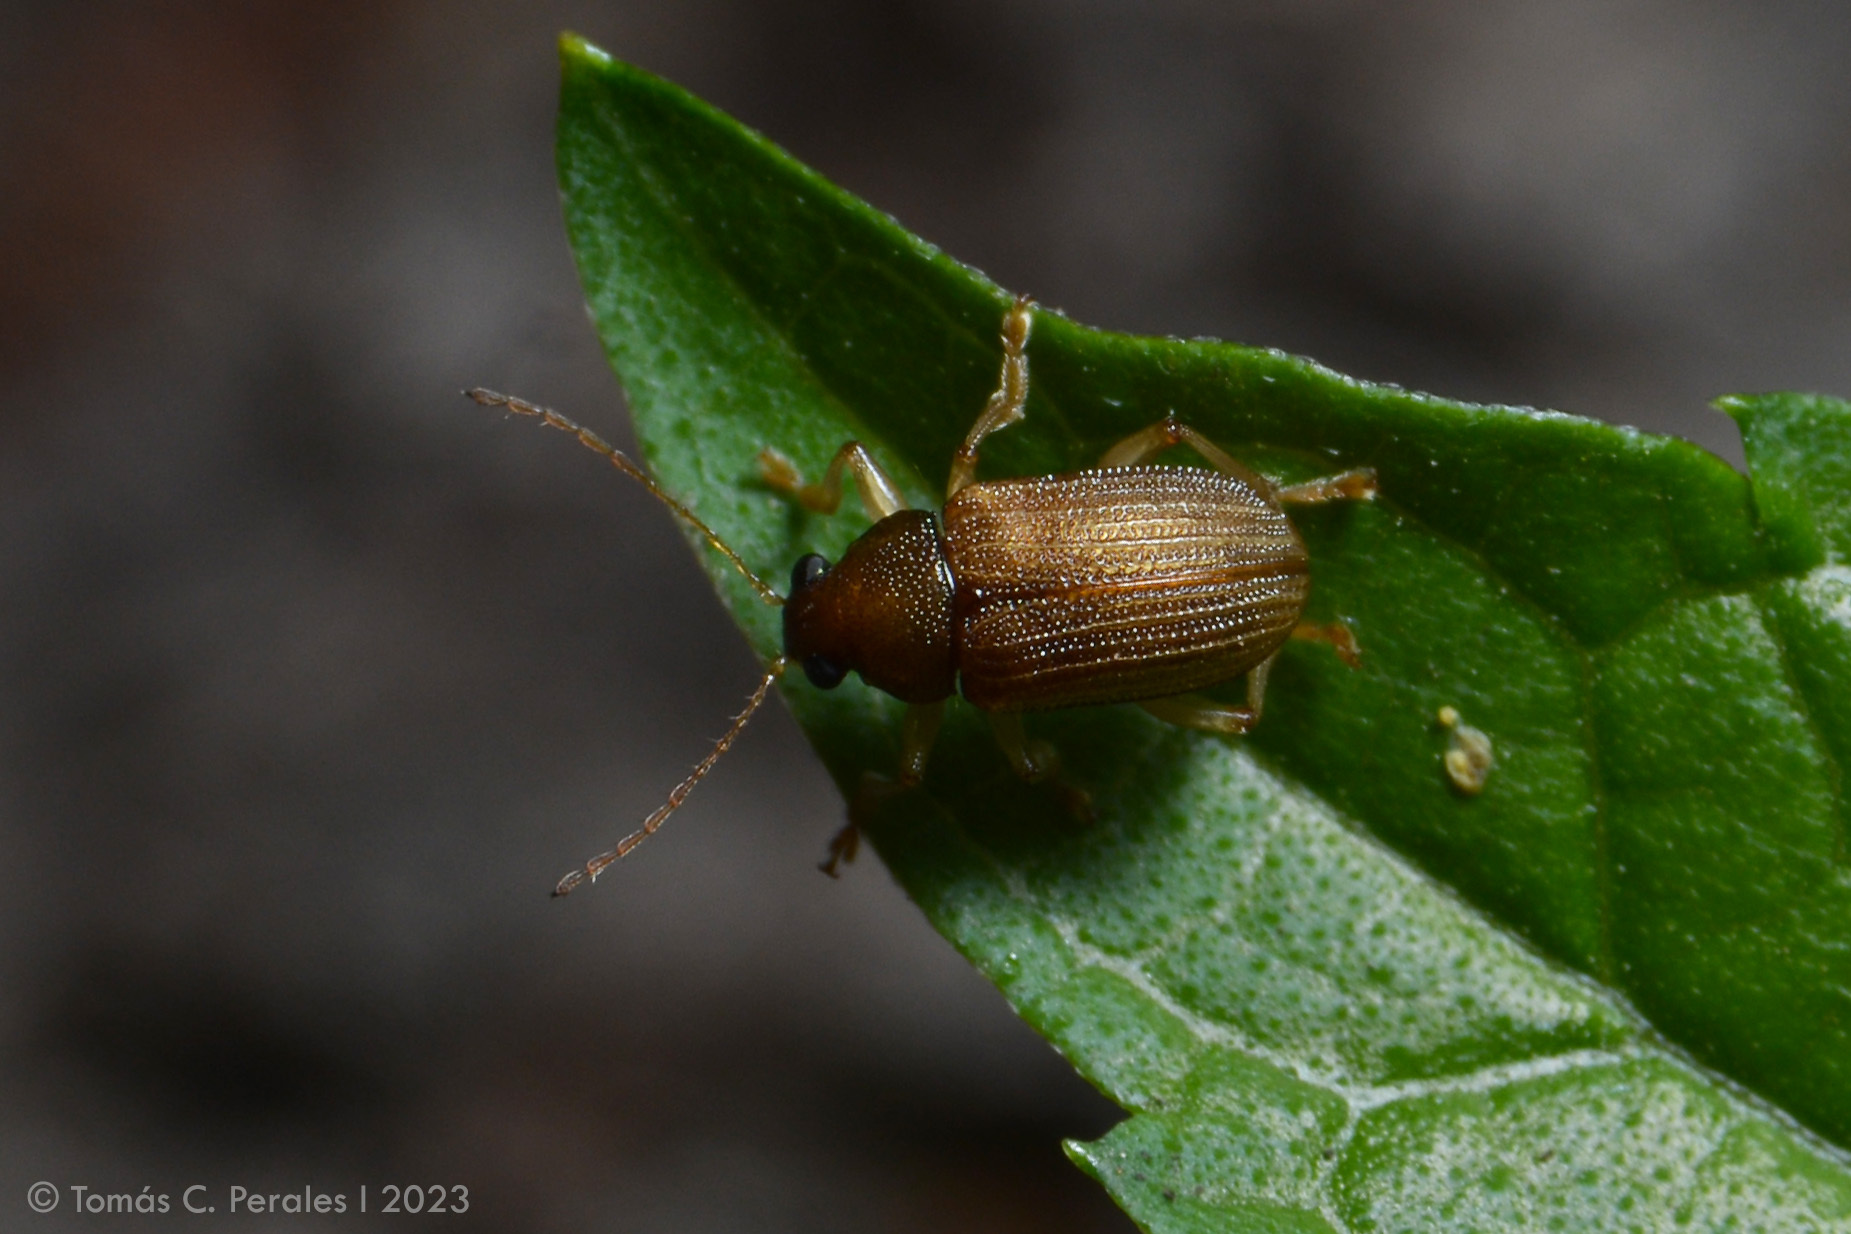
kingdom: Animalia
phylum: Arthropoda
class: Insecta
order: Coleoptera
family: Chrysomelidae
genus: Colaspis
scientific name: Colaspis
